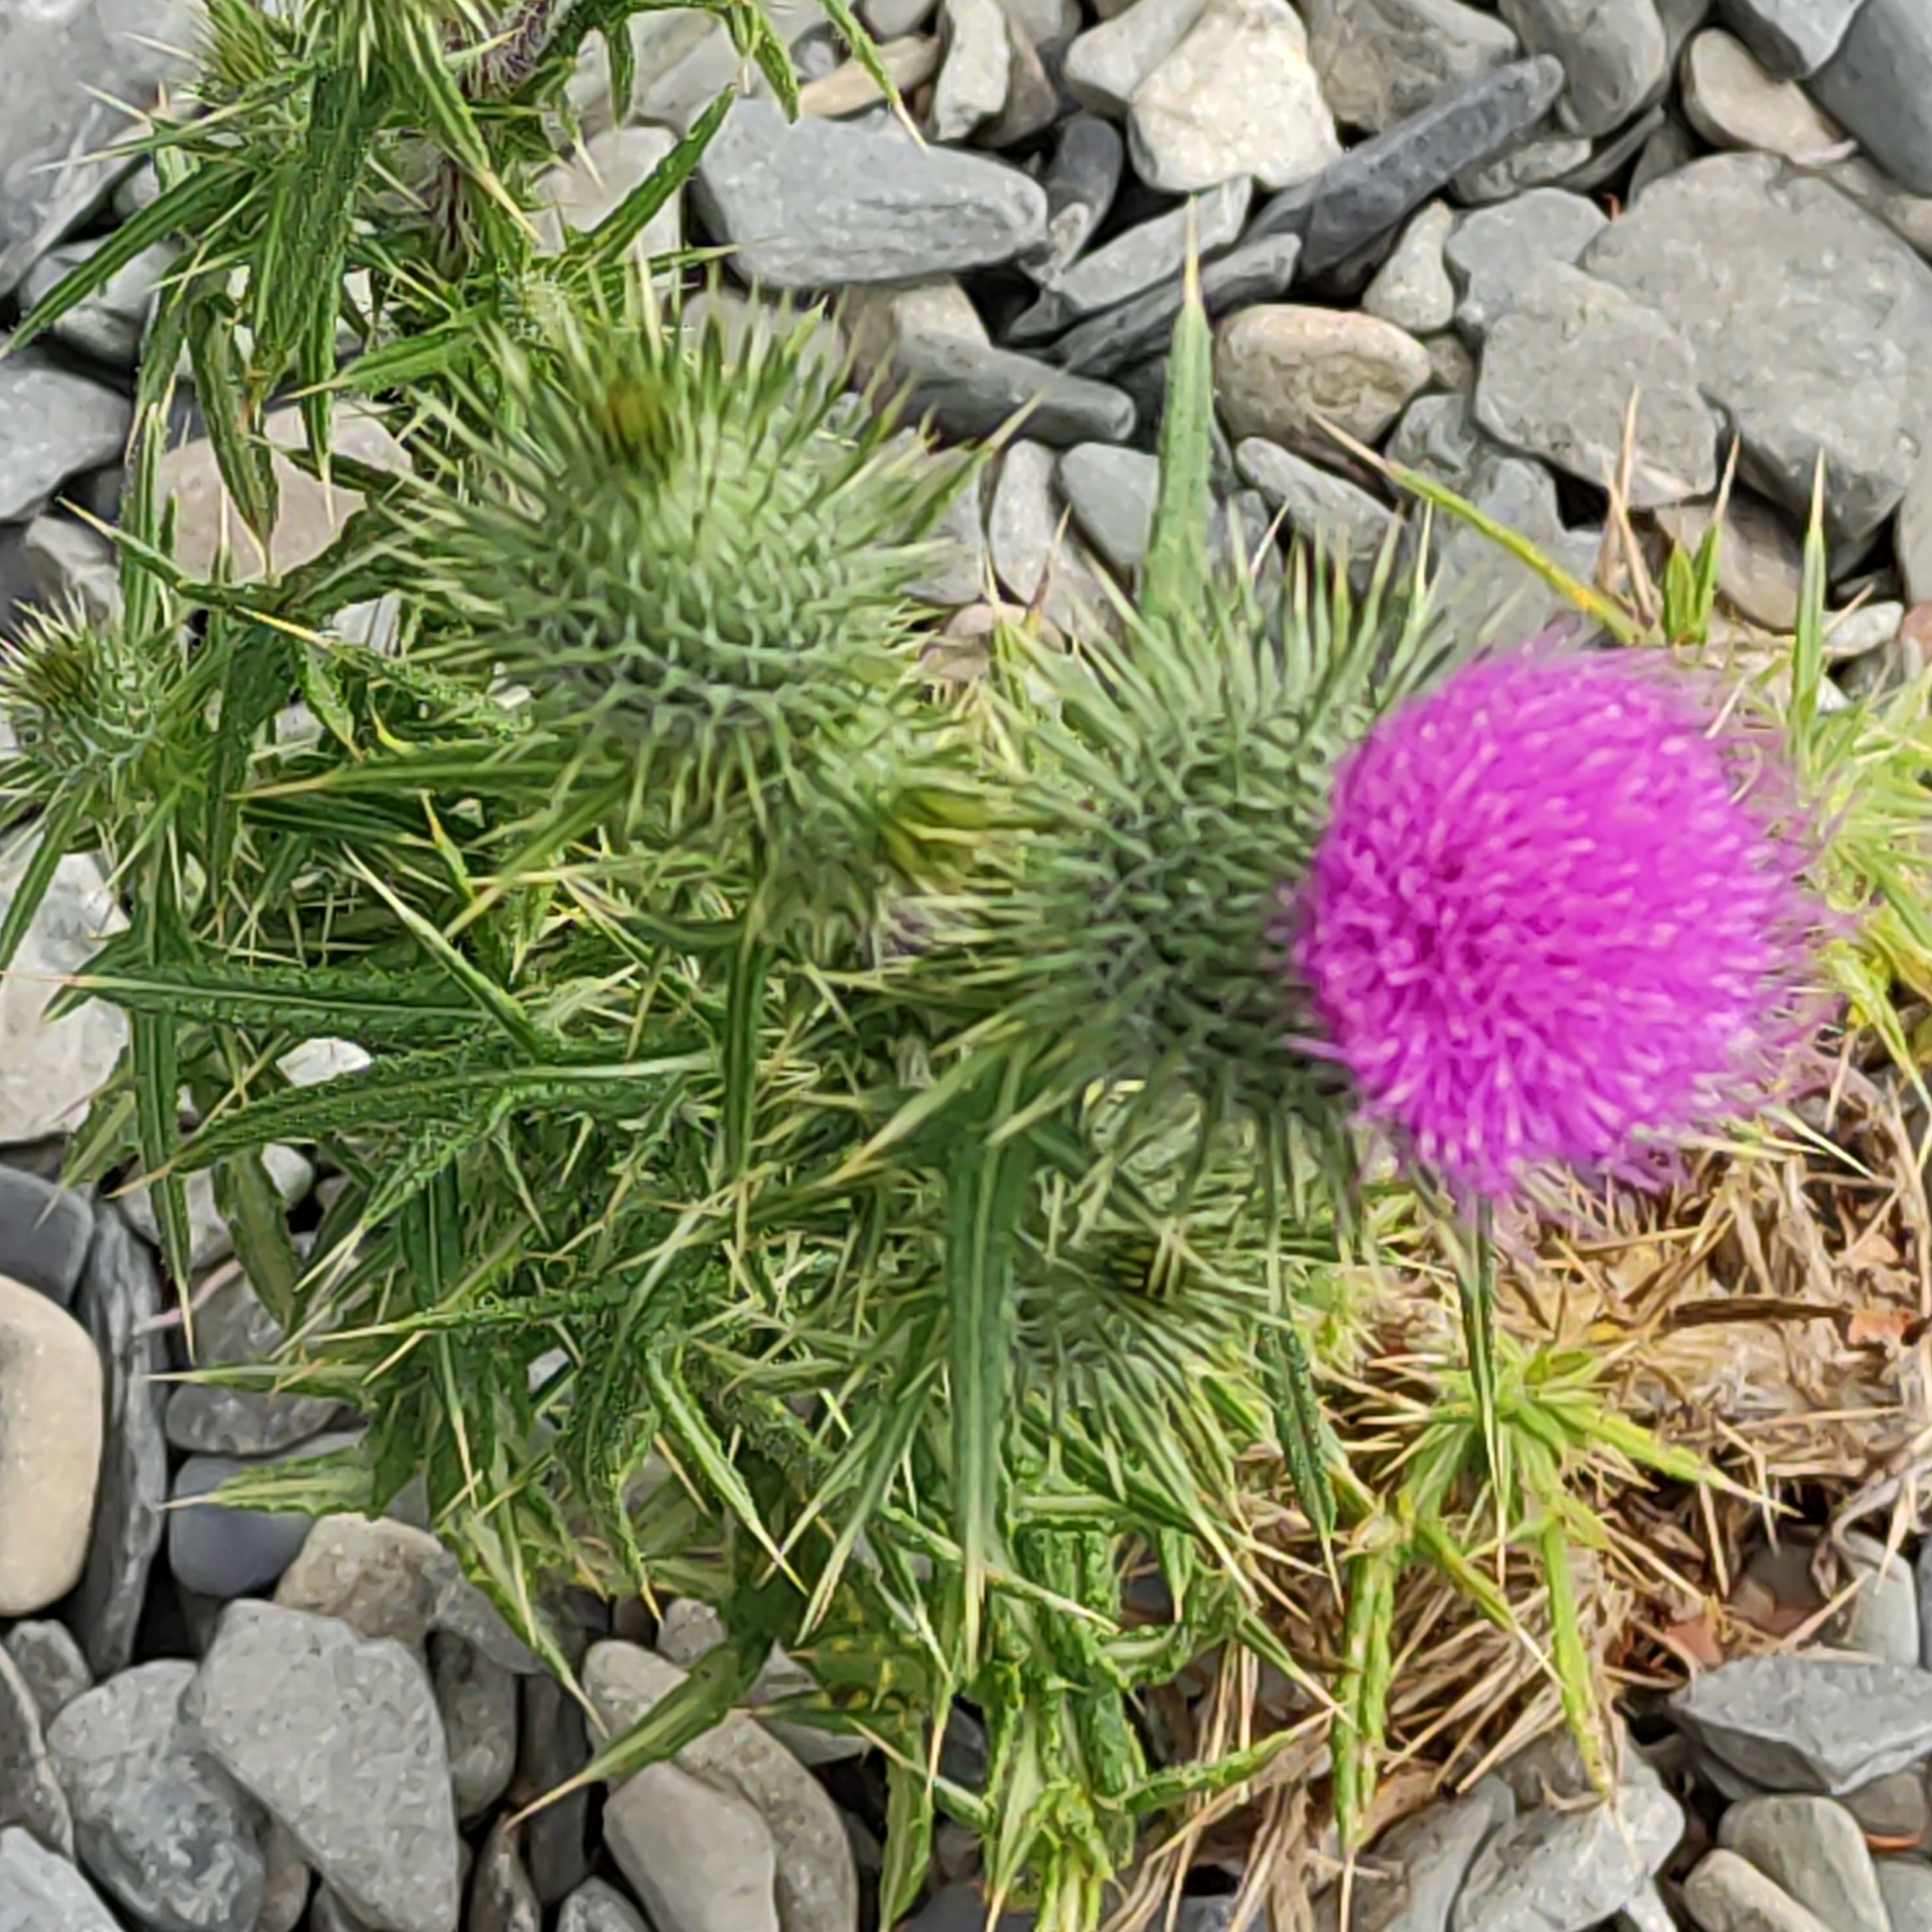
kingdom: Plantae
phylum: Tracheophyta
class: Magnoliopsida
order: Asterales
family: Asteraceae
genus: Cirsium
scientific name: Cirsium vulgare
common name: Bull thistle
